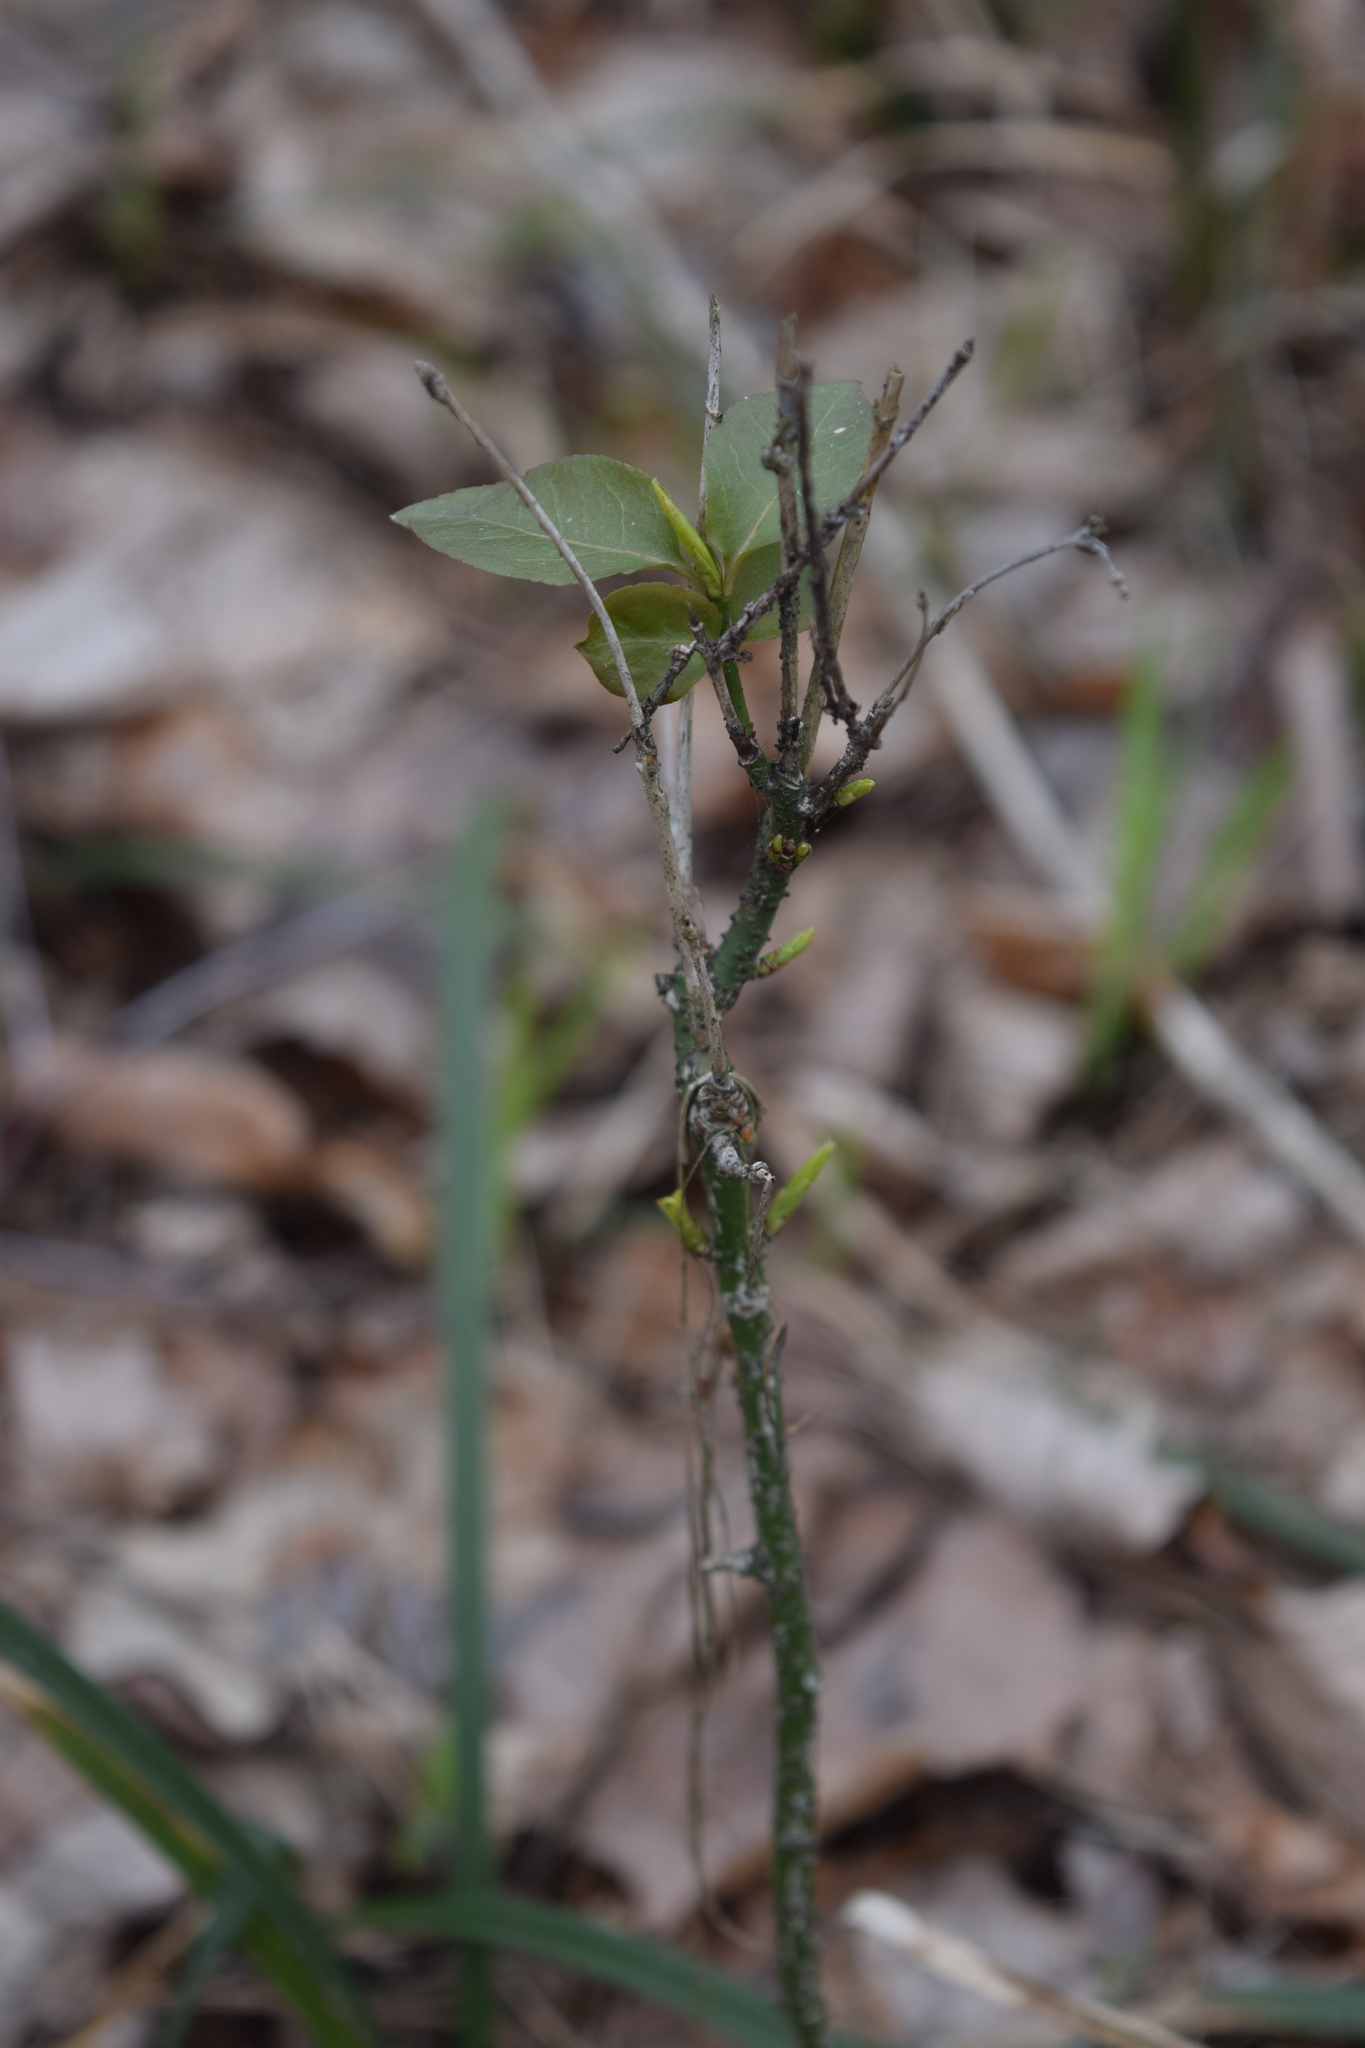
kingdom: Plantae
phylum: Tracheophyta
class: Magnoliopsida
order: Celastrales
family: Celastraceae
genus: Euonymus
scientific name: Euonymus verrucosus
